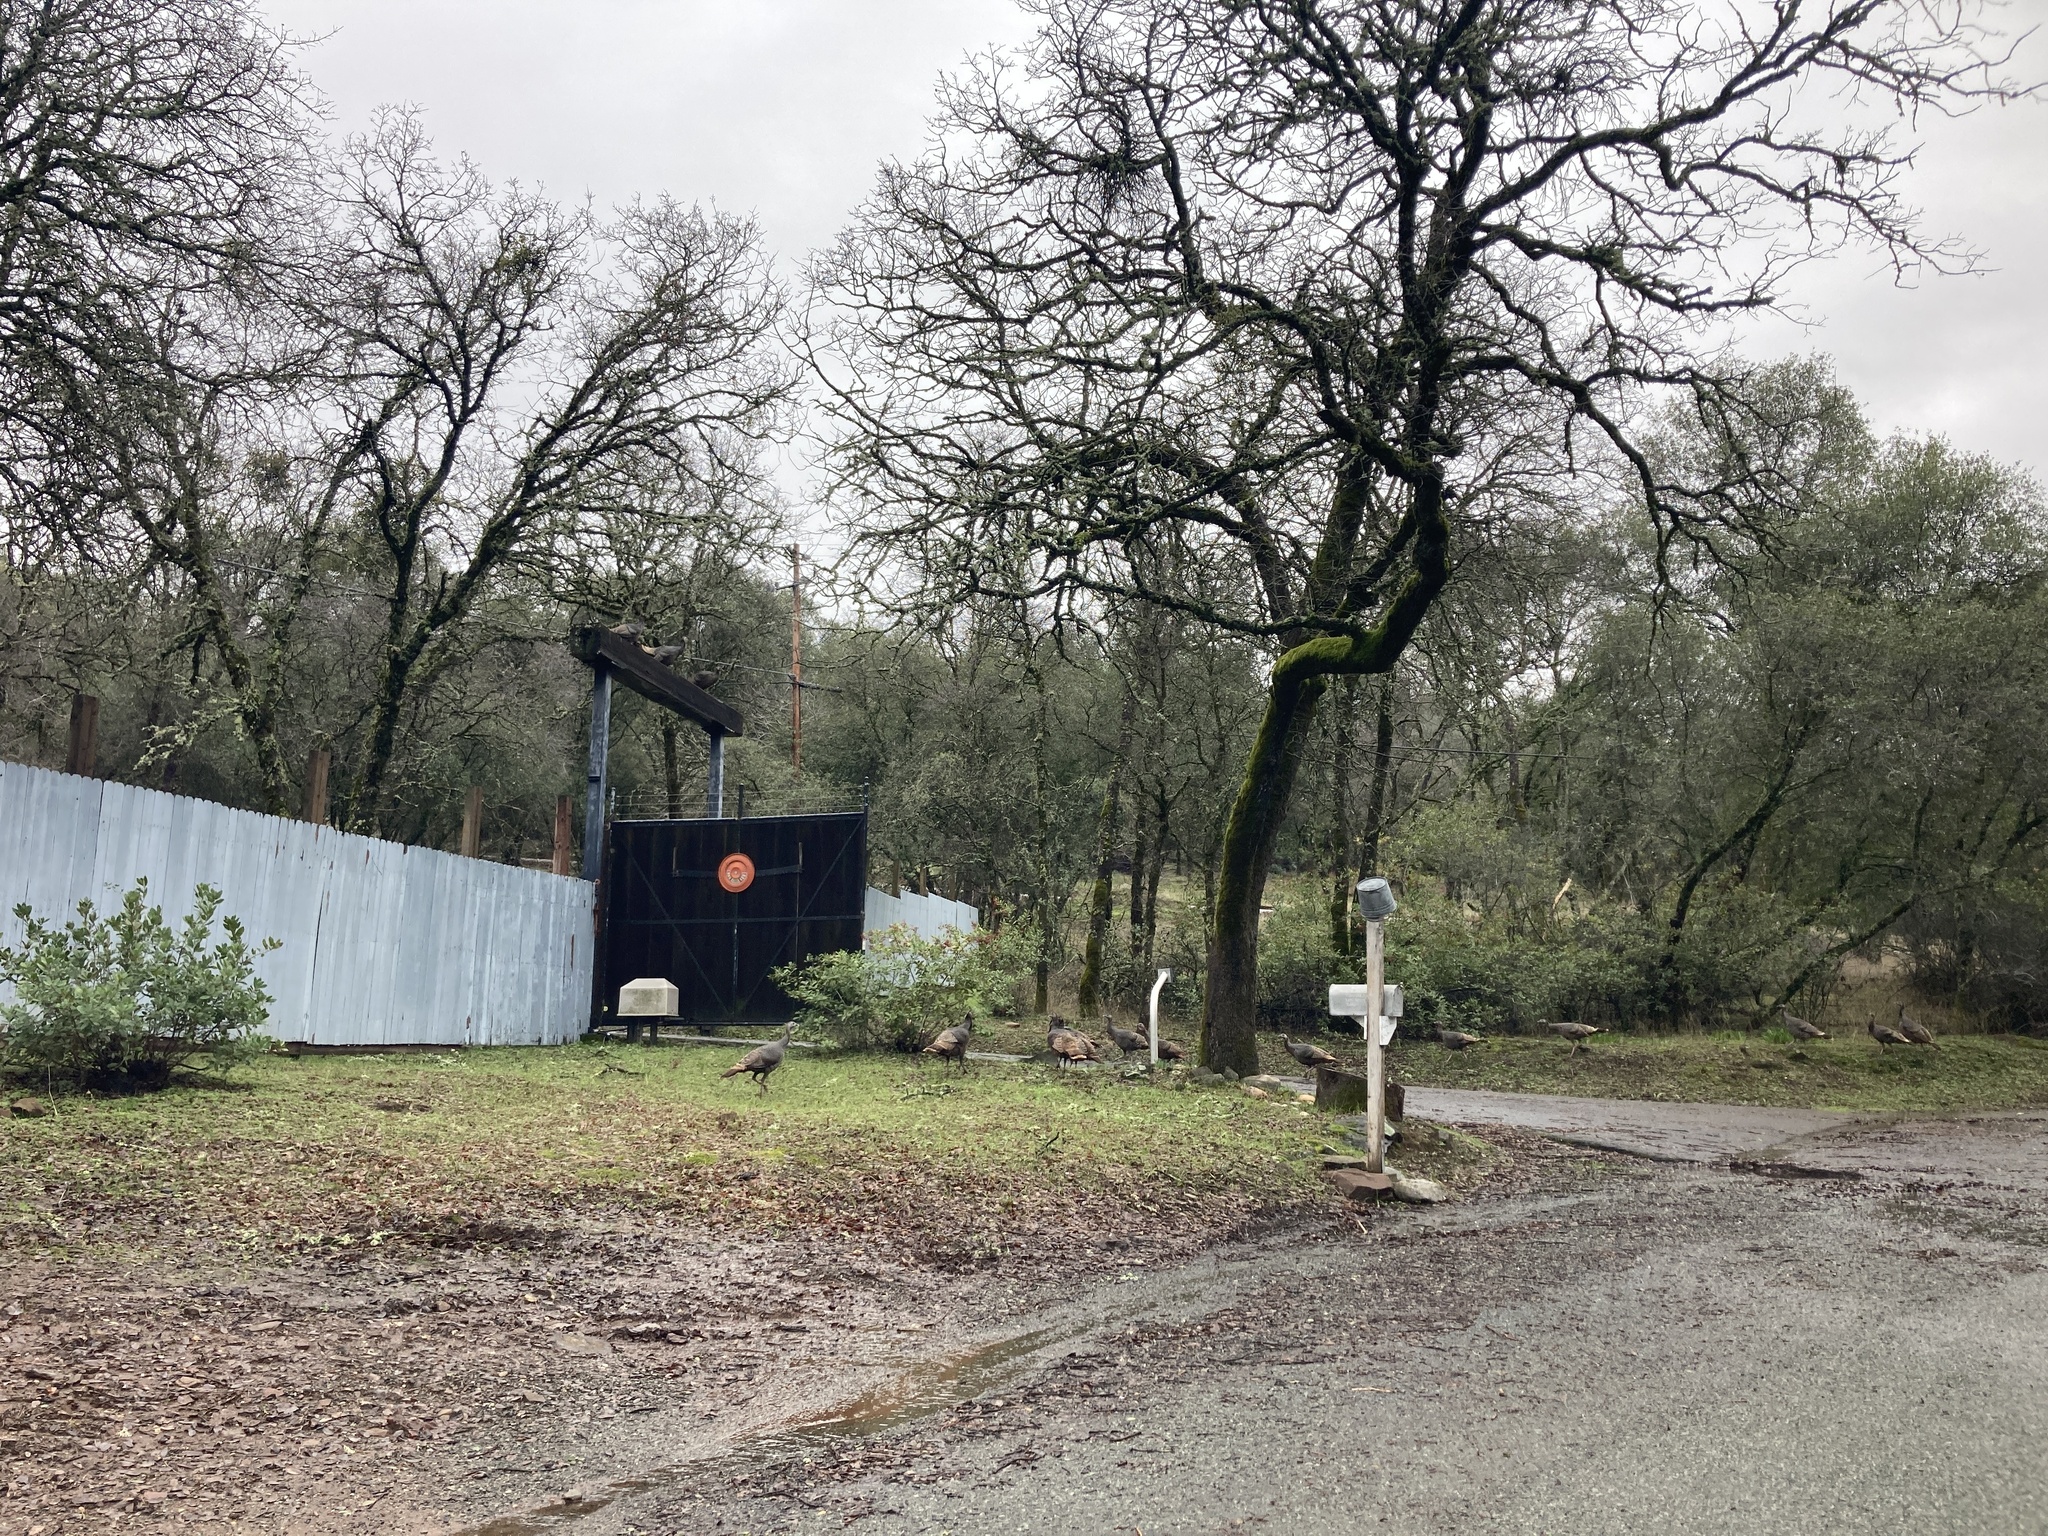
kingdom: Animalia
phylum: Chordata
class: Aves
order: Galliformes
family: Phasianidae
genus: Meleagris
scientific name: Meleagris gallopavo
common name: Wild turkey
